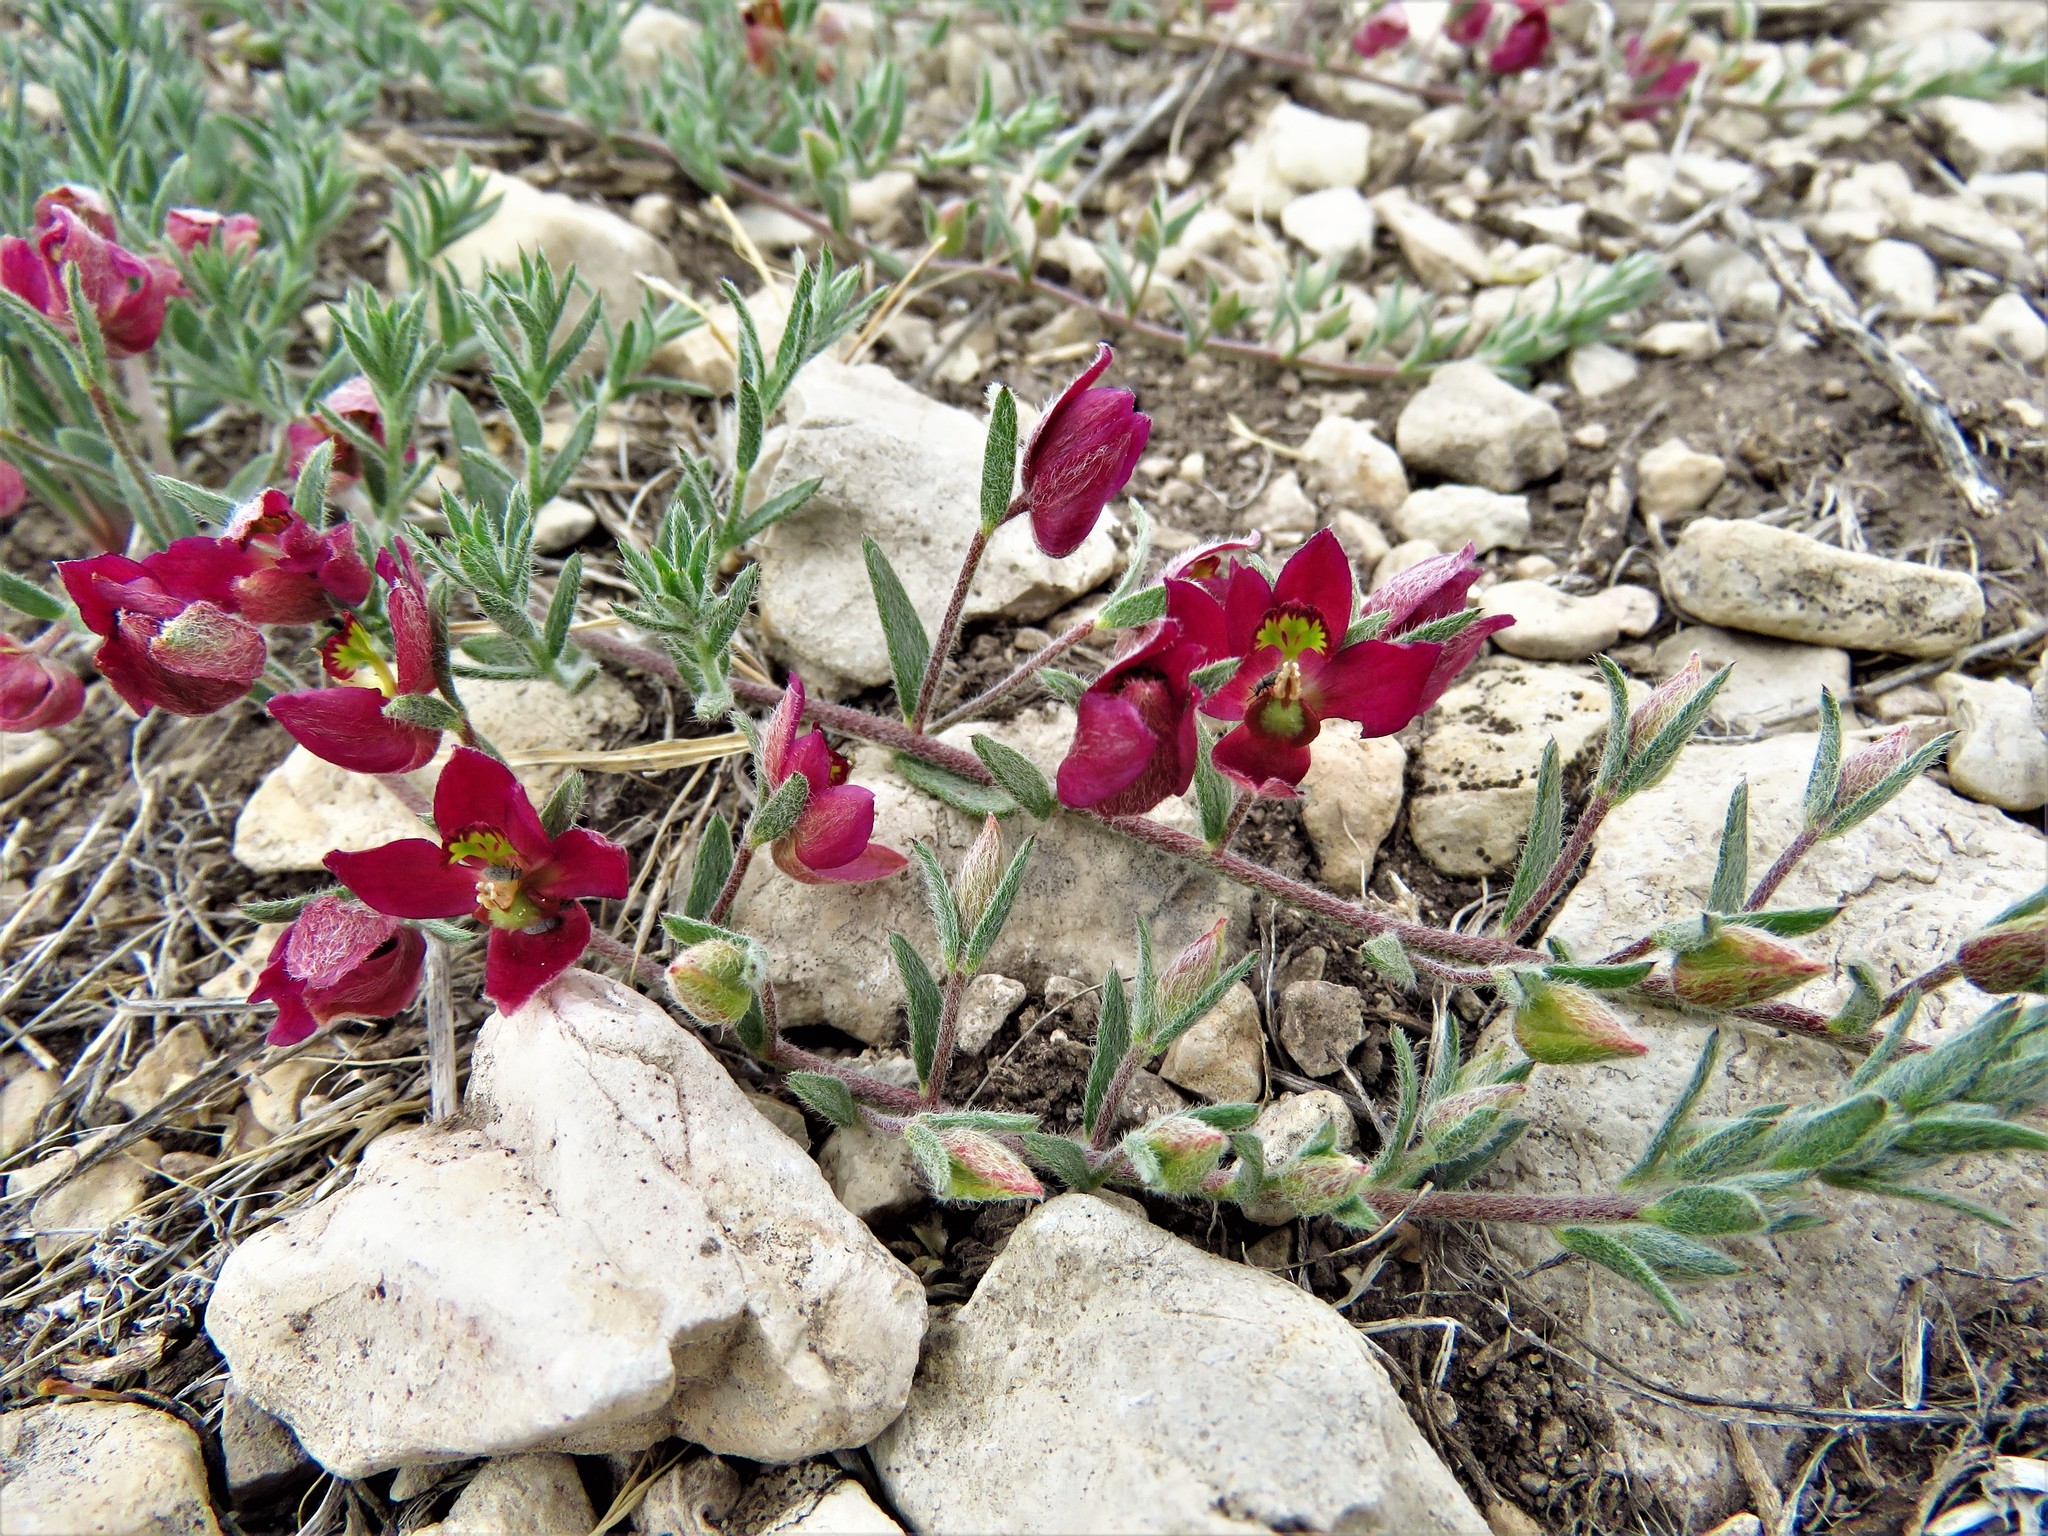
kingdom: Plantae
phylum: Tracheophyta
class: Magnoliopsida
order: Zygophyllales
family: Krameriaceae
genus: Krameria
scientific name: Krameria lanceolata
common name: Ratany
